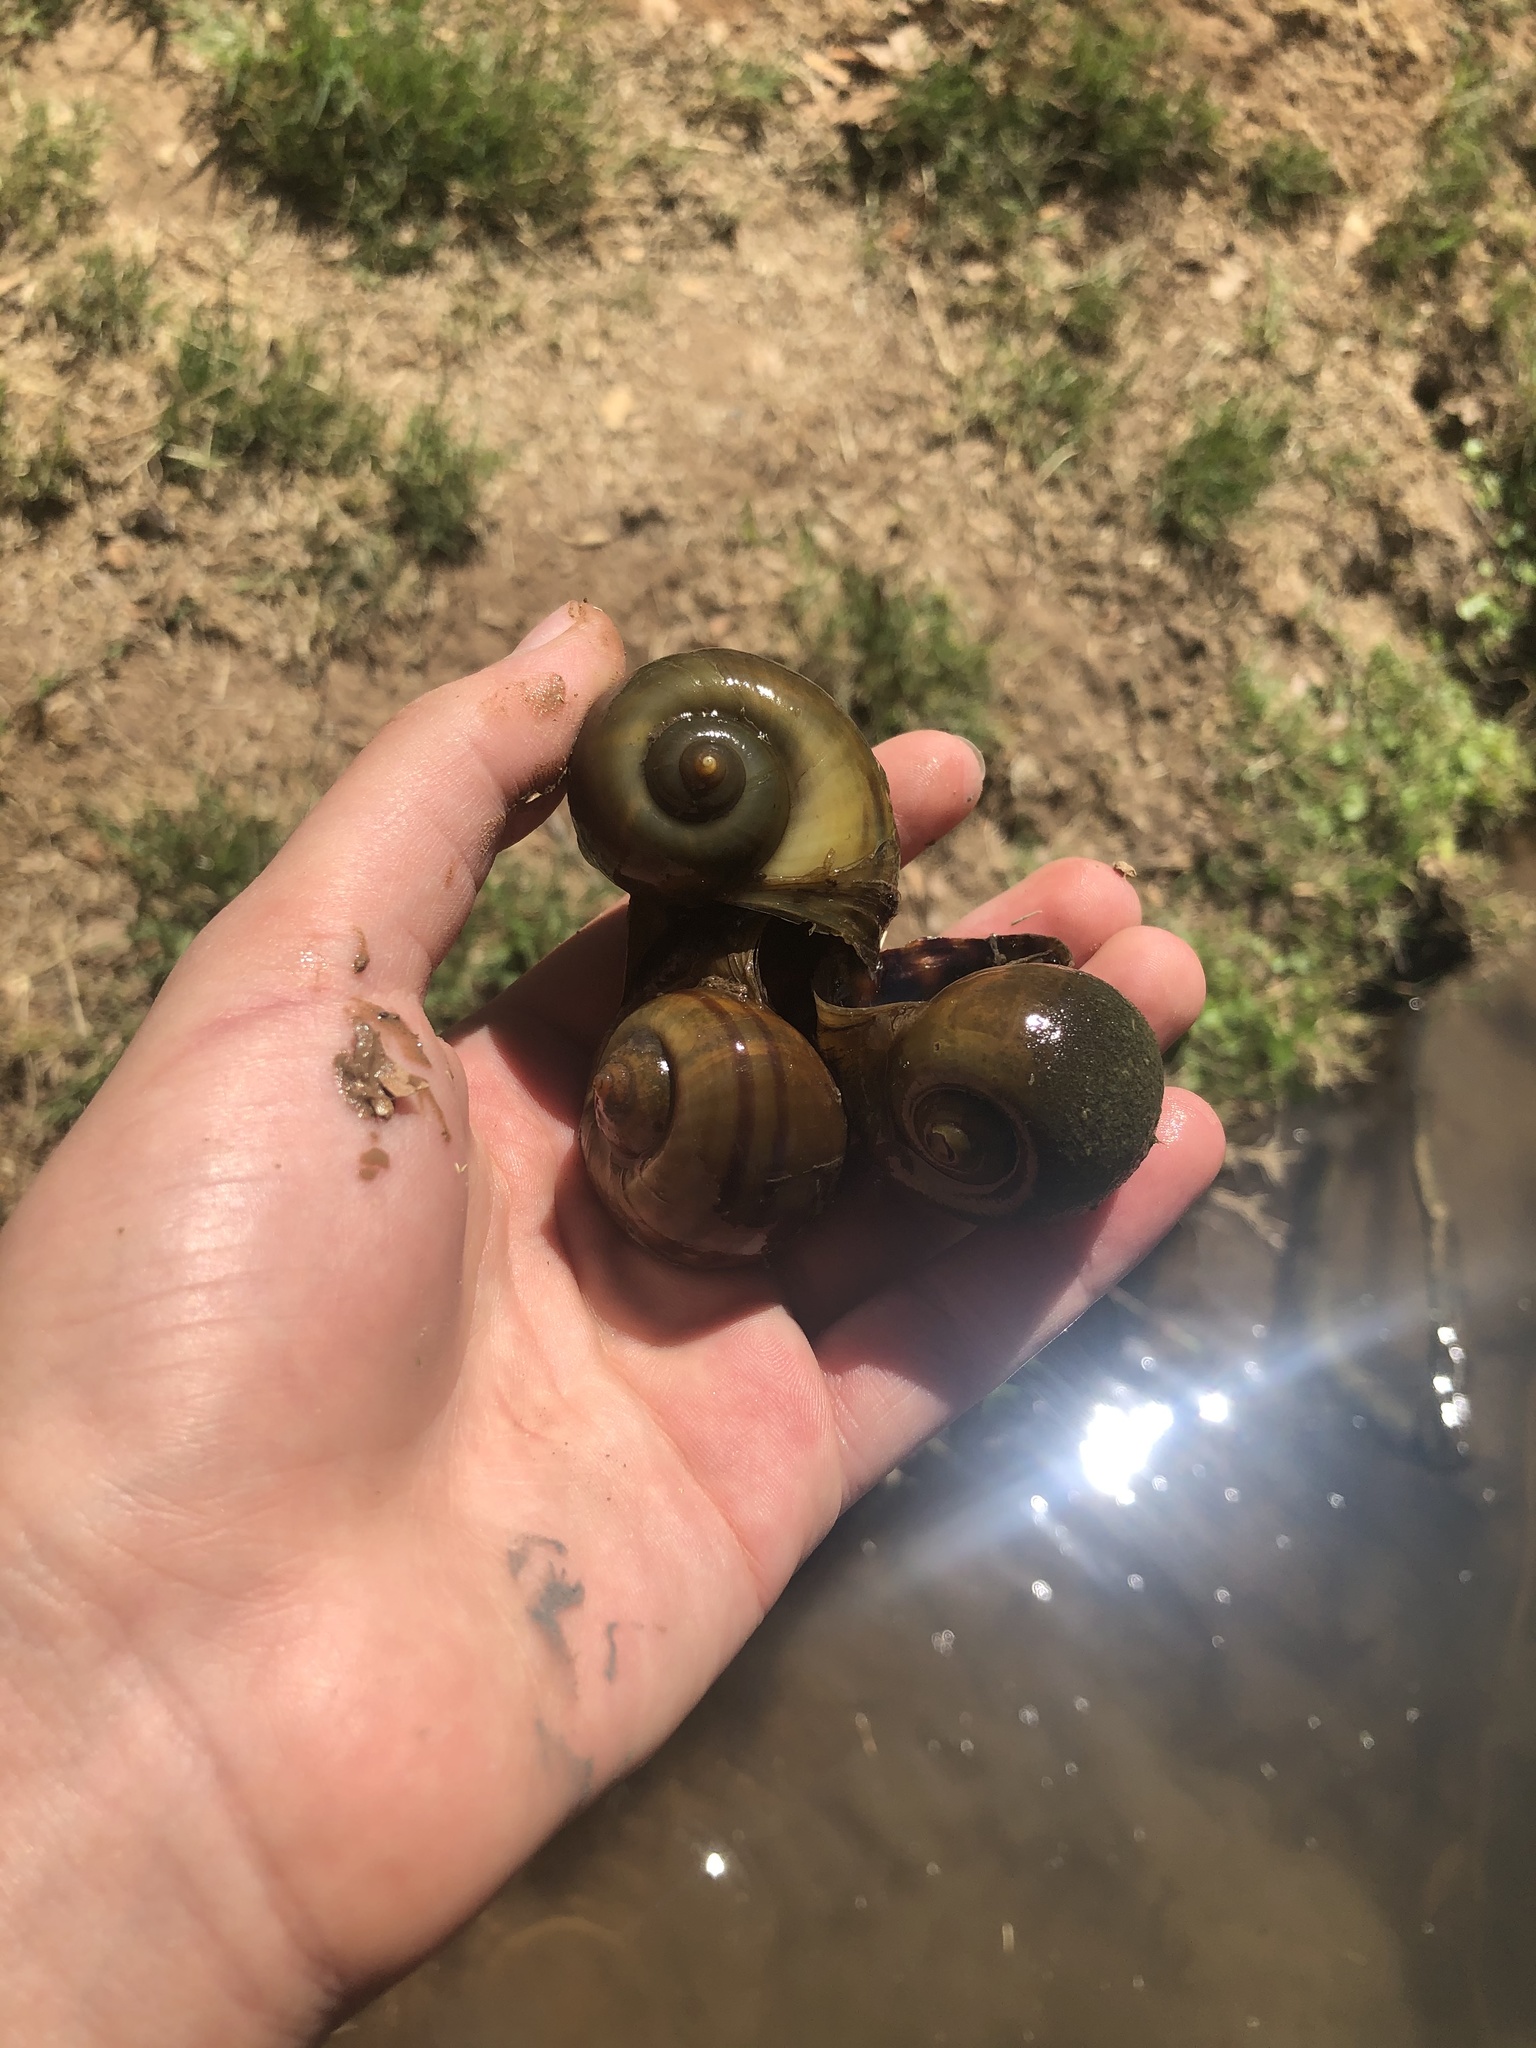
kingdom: Animalia
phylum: Mollusca
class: Gastropoda
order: Architaenioglossa
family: Ampullariidae
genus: Pomacea
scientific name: Pomacea canaliculata
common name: Channeled applesnail
